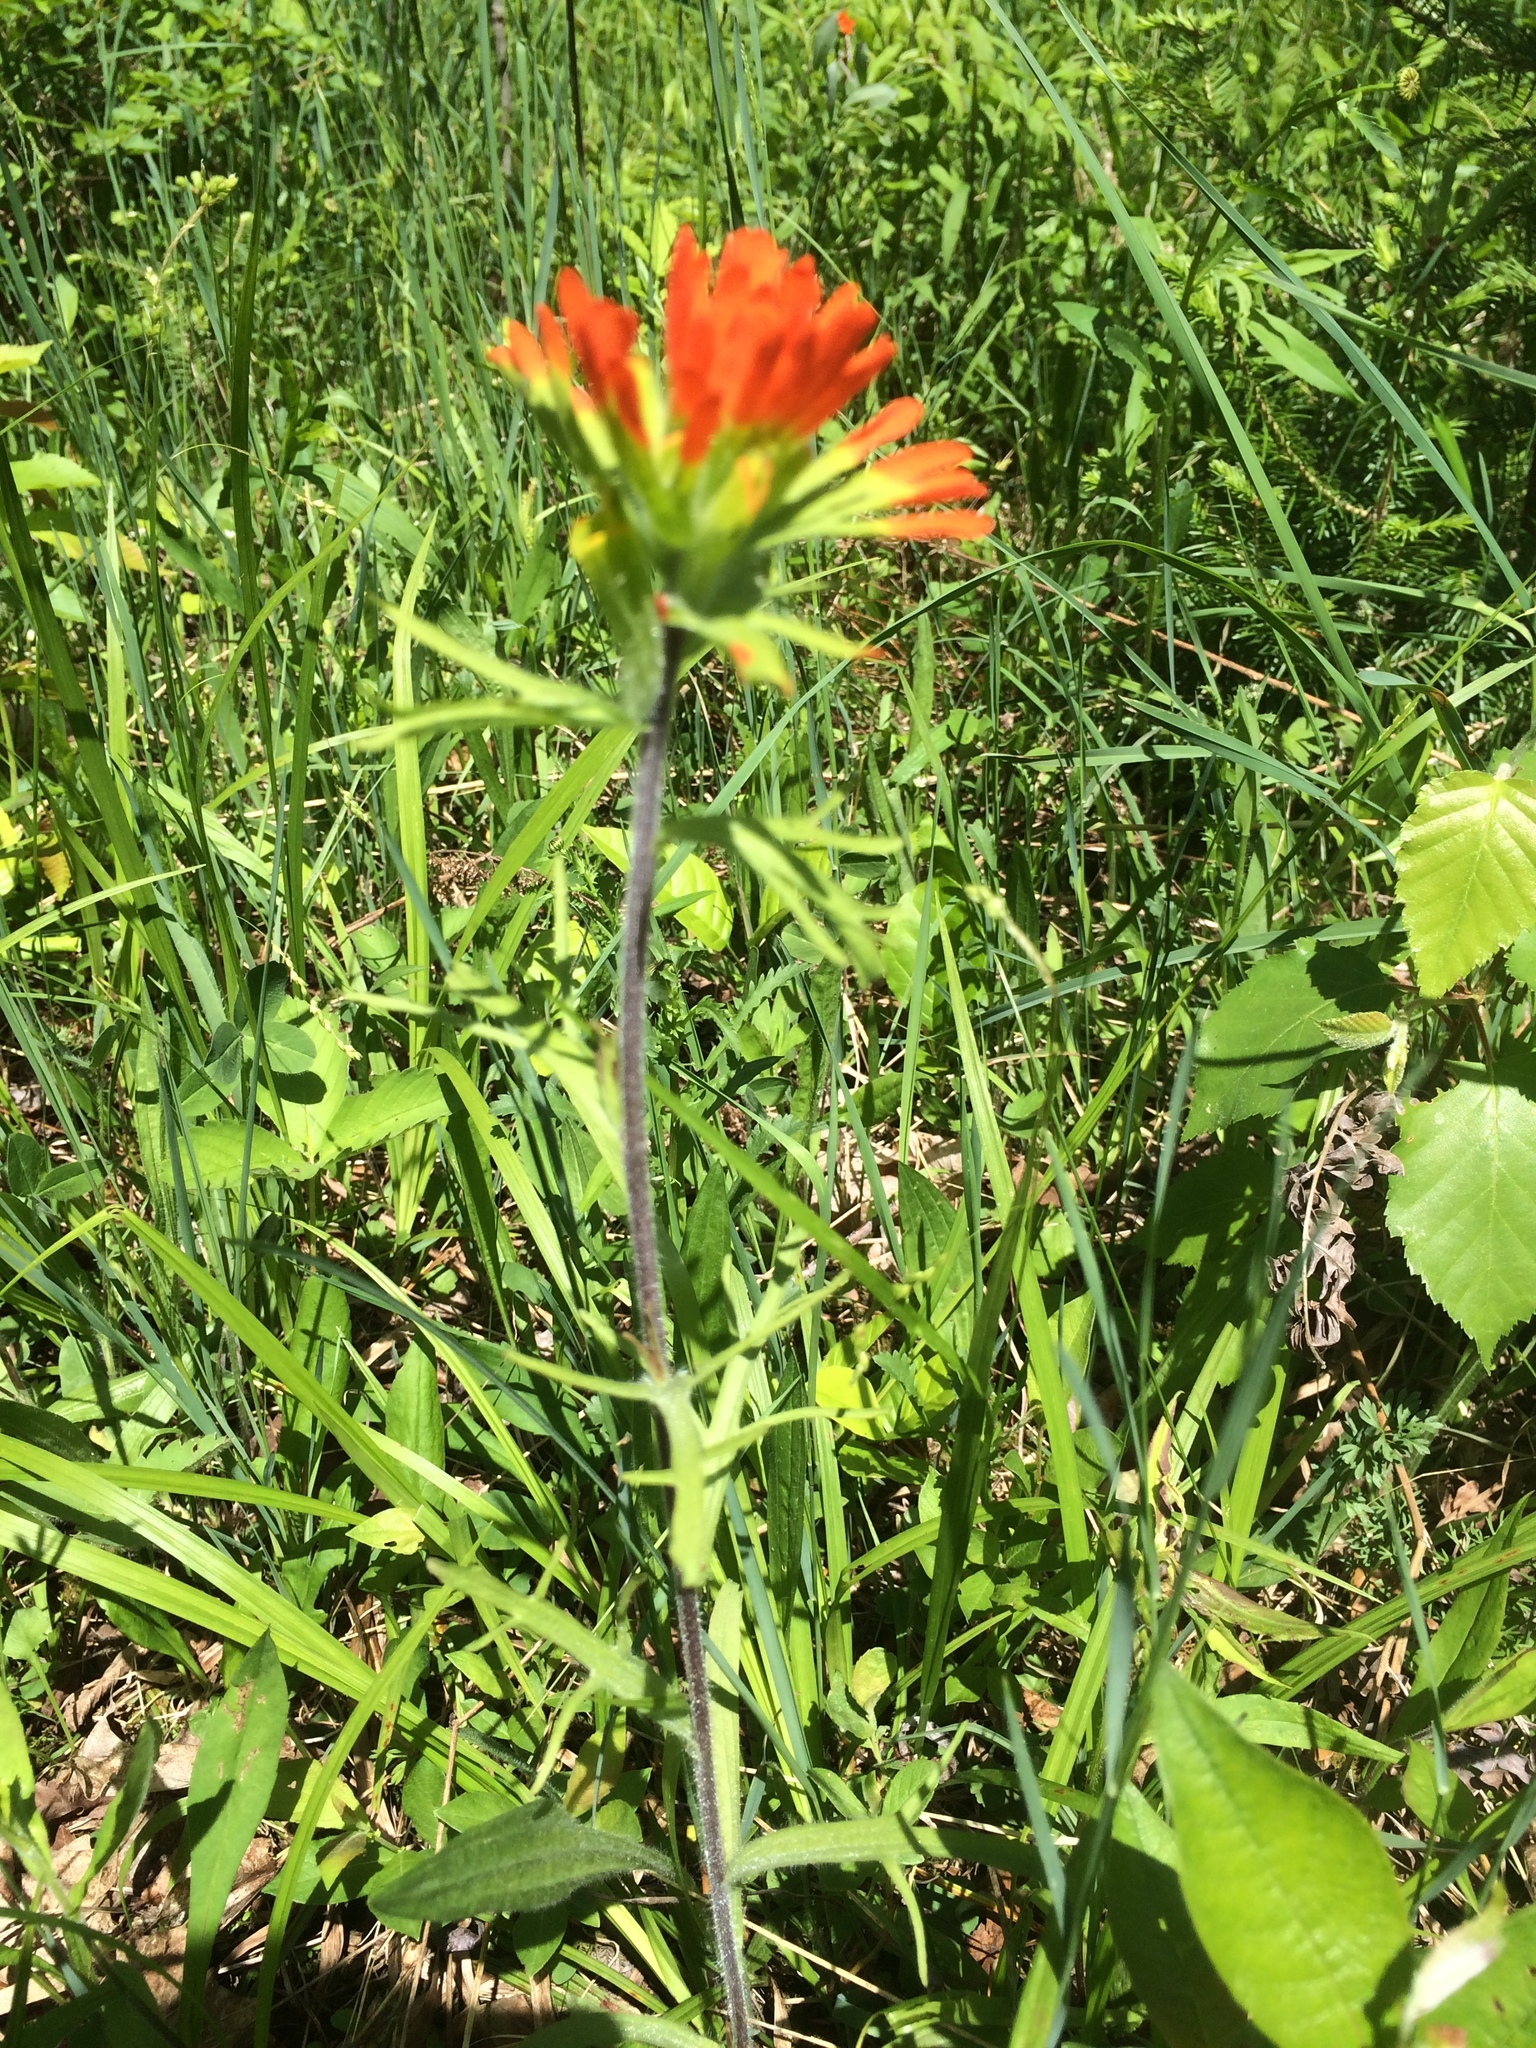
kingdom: Plantae
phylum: Tracheophyta
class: Magnoliopsida
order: Lamiales
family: Orobanchaceae
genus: Castilleja
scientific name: Castilleja coccinea
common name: Scarlet paintbrush
